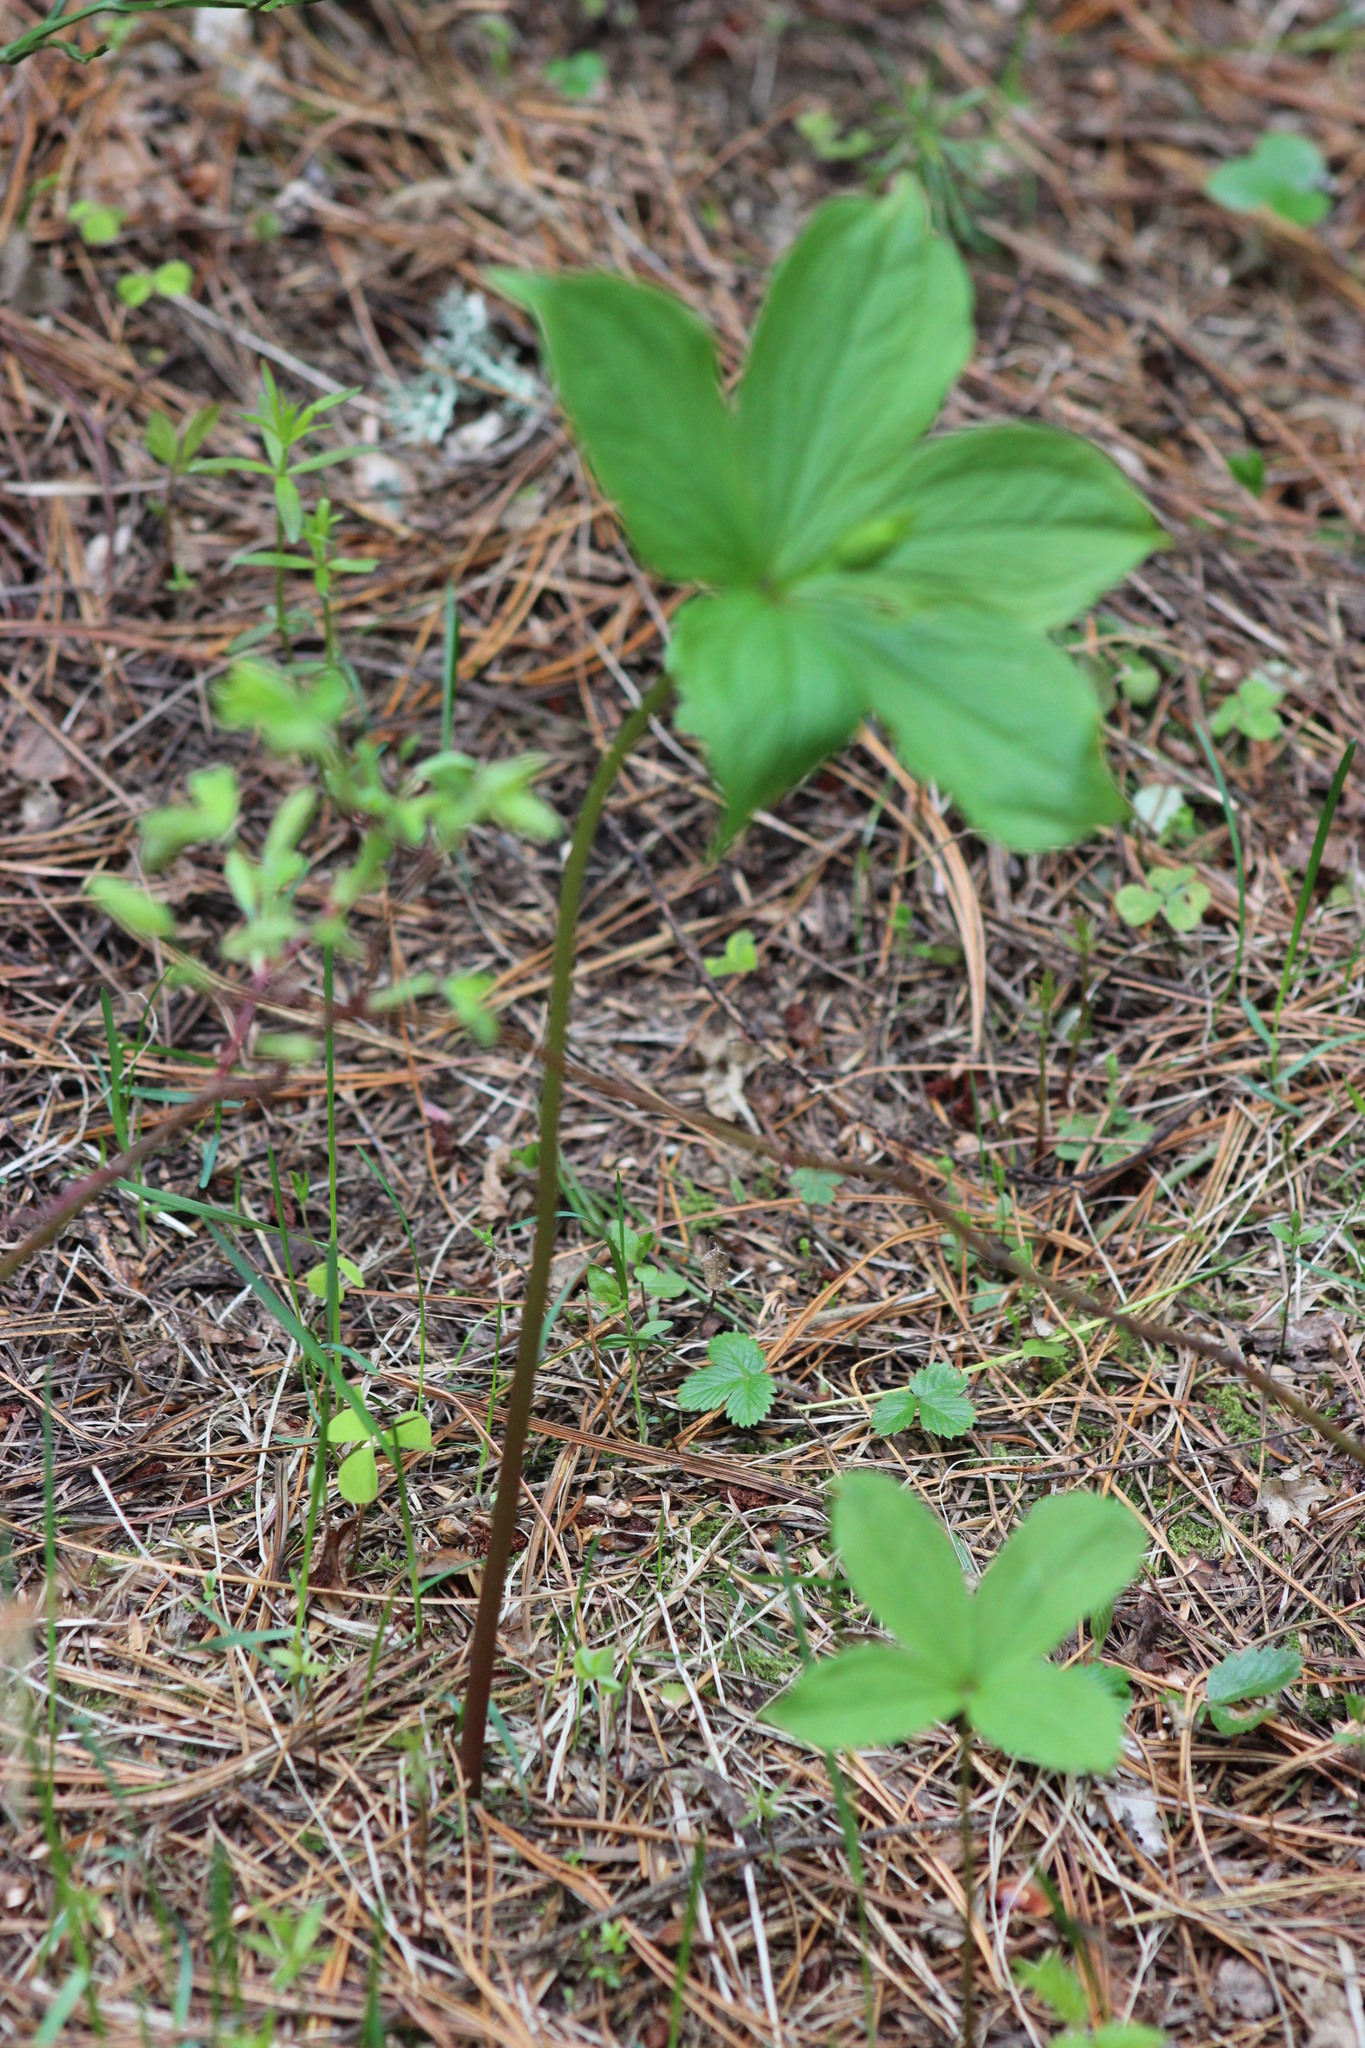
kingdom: Plantae
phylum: Tracheophyta
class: Liliopsida
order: Liliales
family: Melanthiaceae
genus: Paris
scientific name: Paris quadrifolia
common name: Herb-paris
